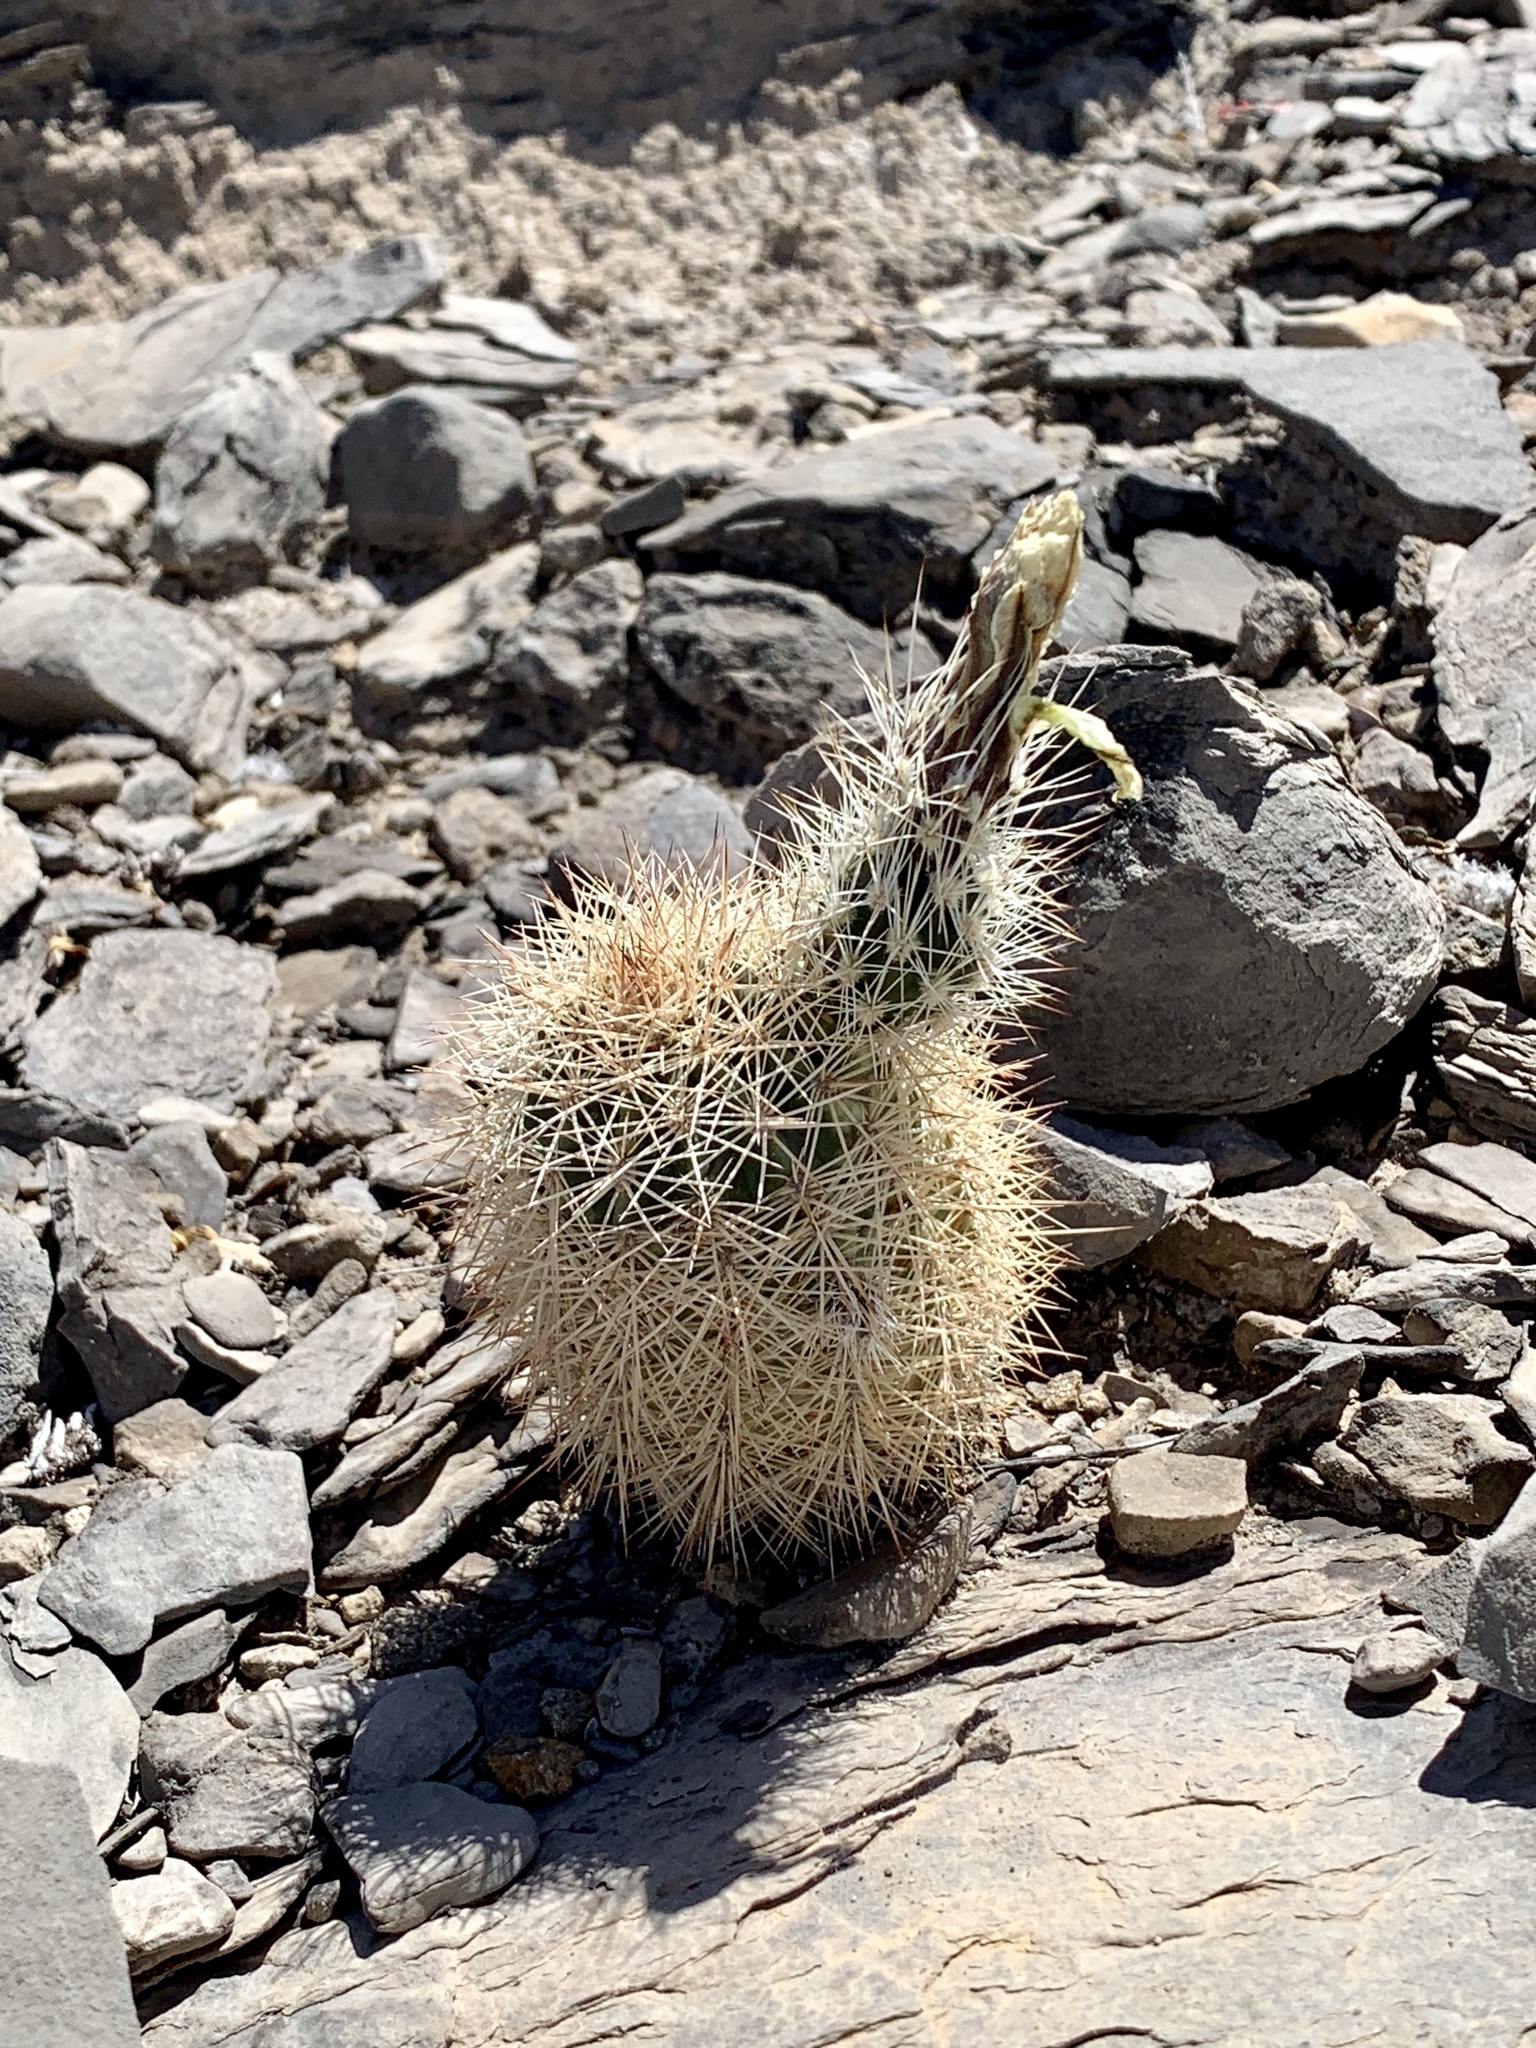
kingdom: Plantae
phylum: Tracheophyta
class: Magnoliopsida
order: Caryophyllales
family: Cactaceae
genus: Echinocereus
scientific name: Echinocereus dasyacanthus
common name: Spiny hedgehog cactus
